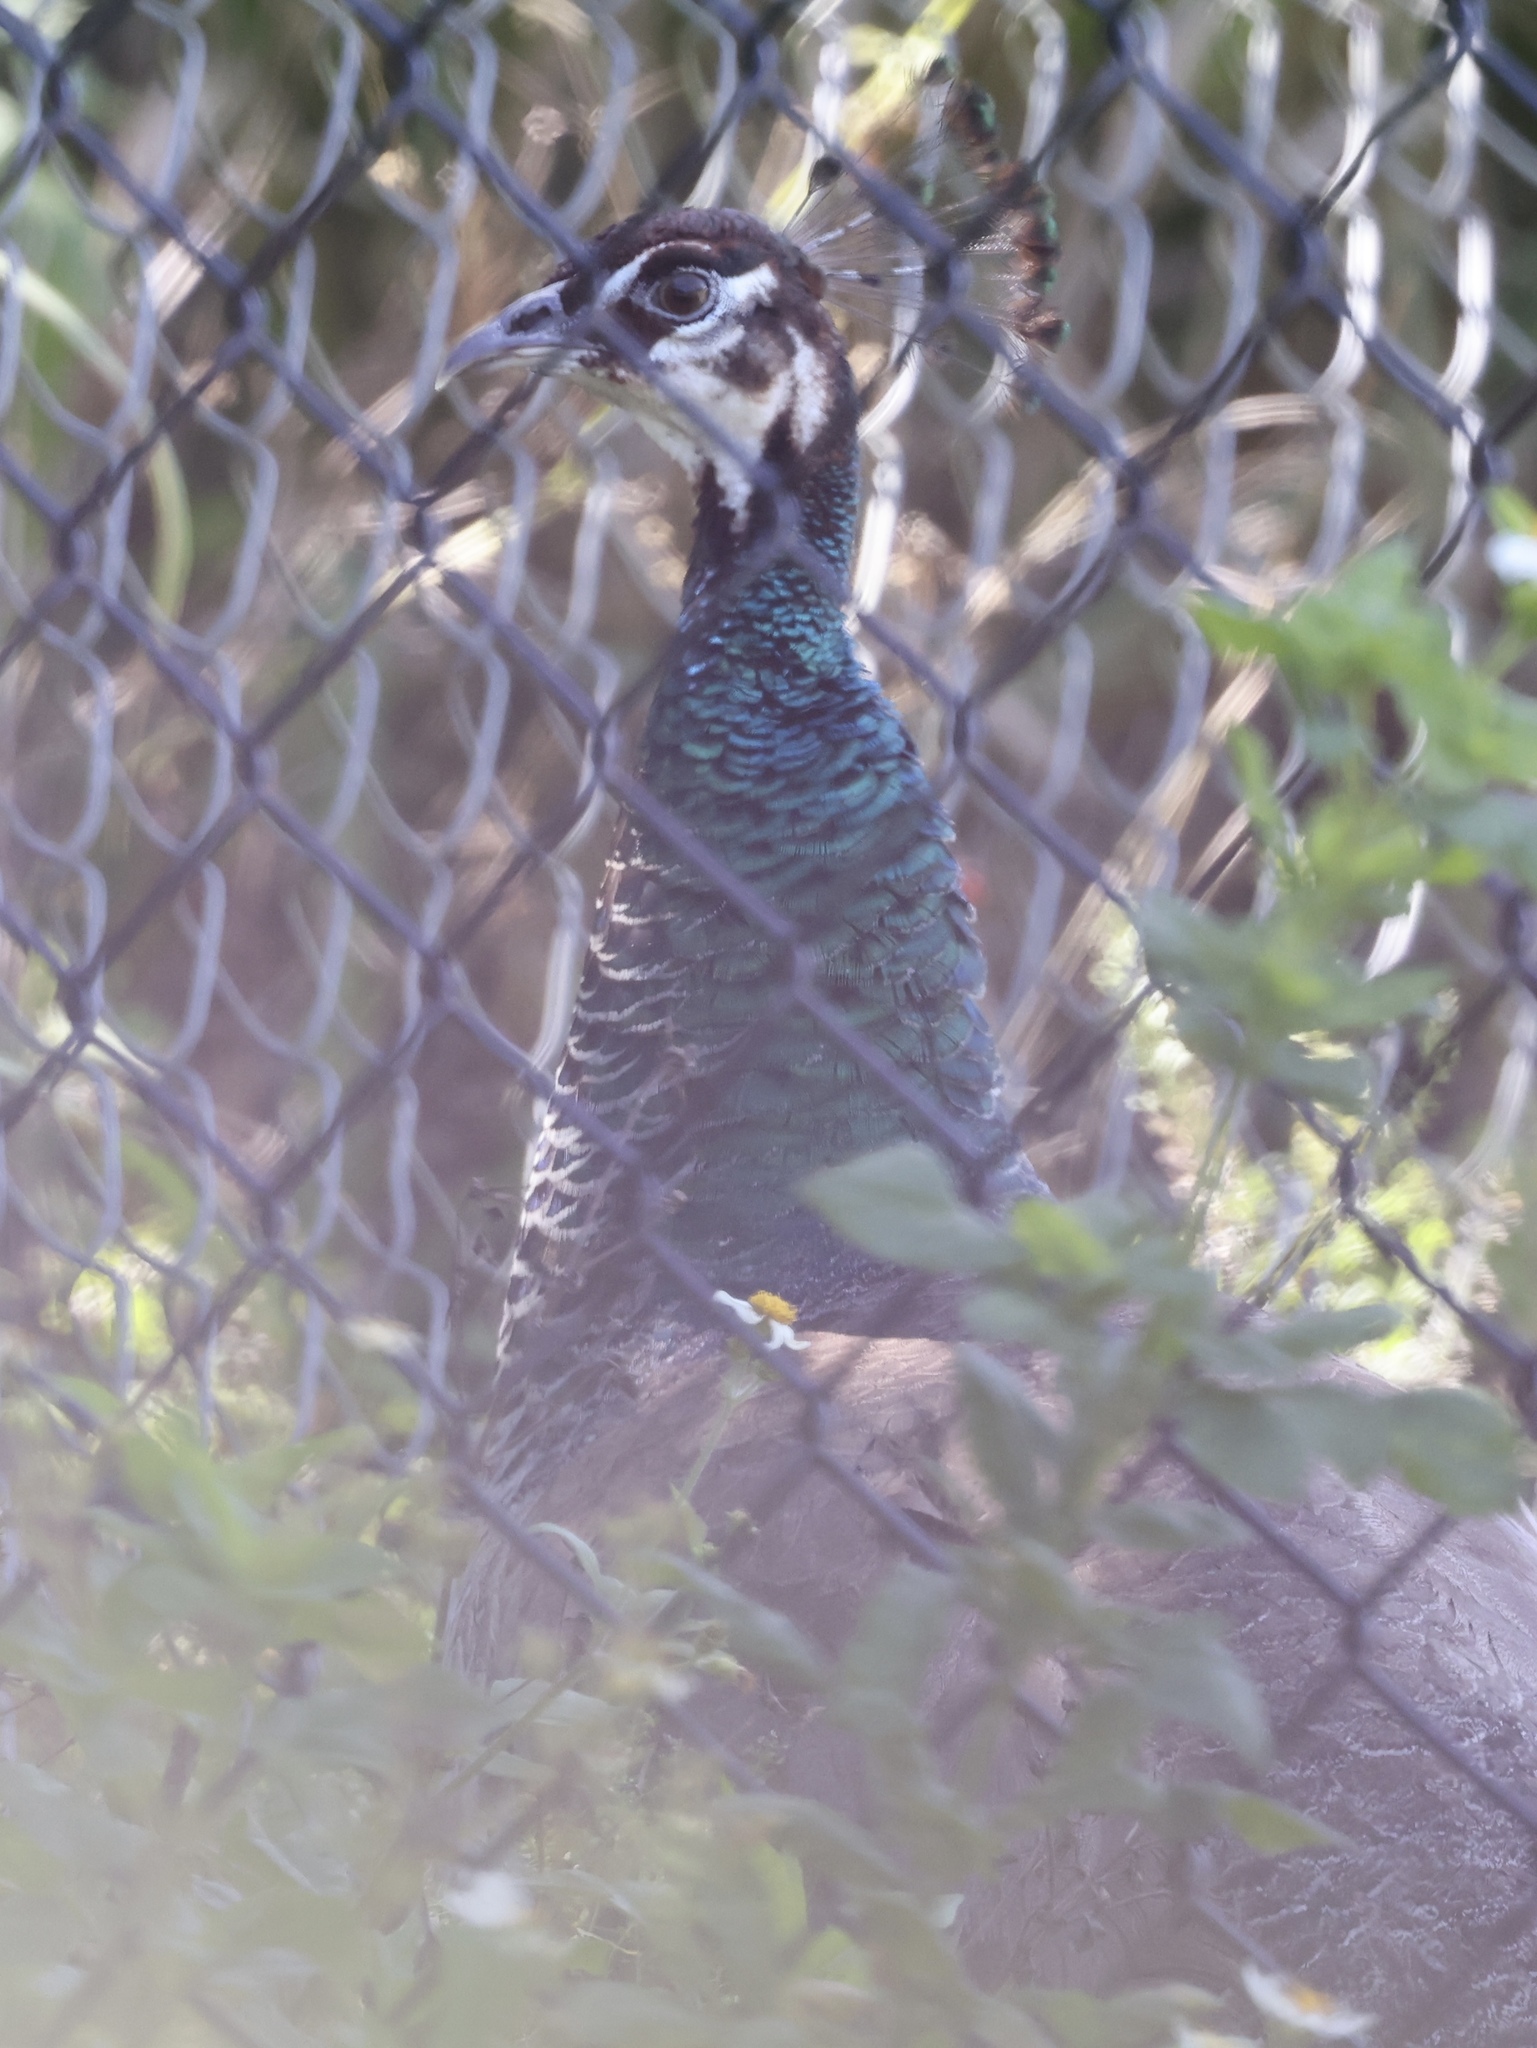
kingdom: Animalia
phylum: Chordata
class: Aves
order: Galliformes
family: Phasianidae
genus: Pavo
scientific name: Pavo cristatus
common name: Indian peafowl
